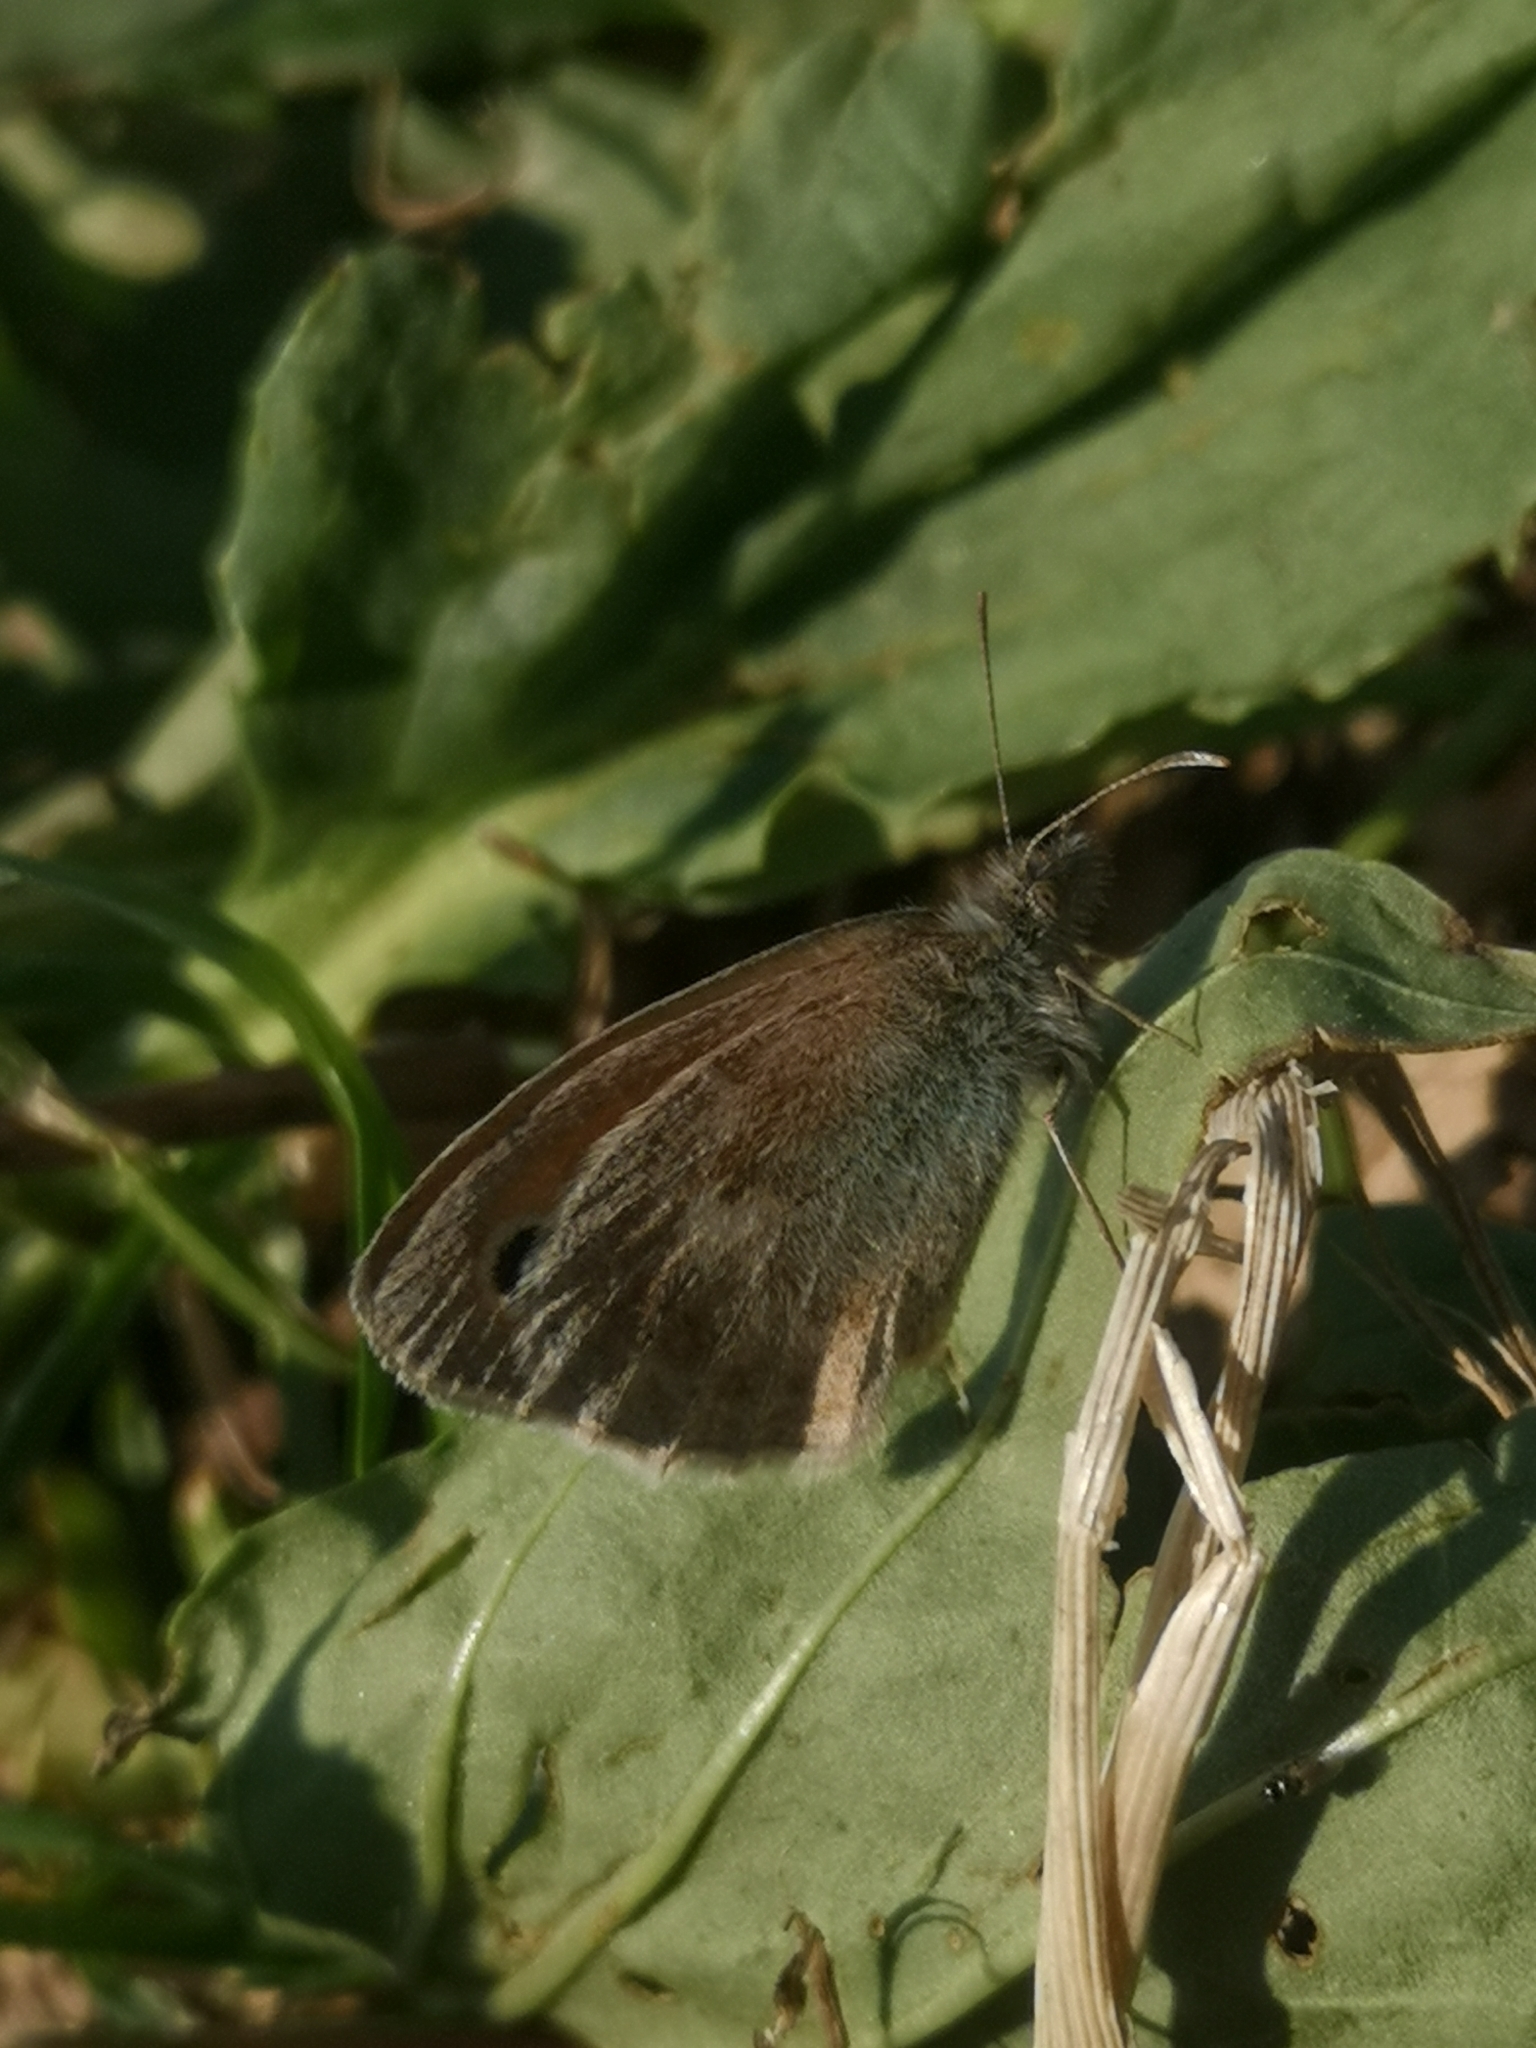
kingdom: Animalia
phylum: Arthropoda
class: Insecta
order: Lepidoptera
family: Nymphalidae
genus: Coenonympha
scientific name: Coenonympha pamphilus
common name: Small heath
